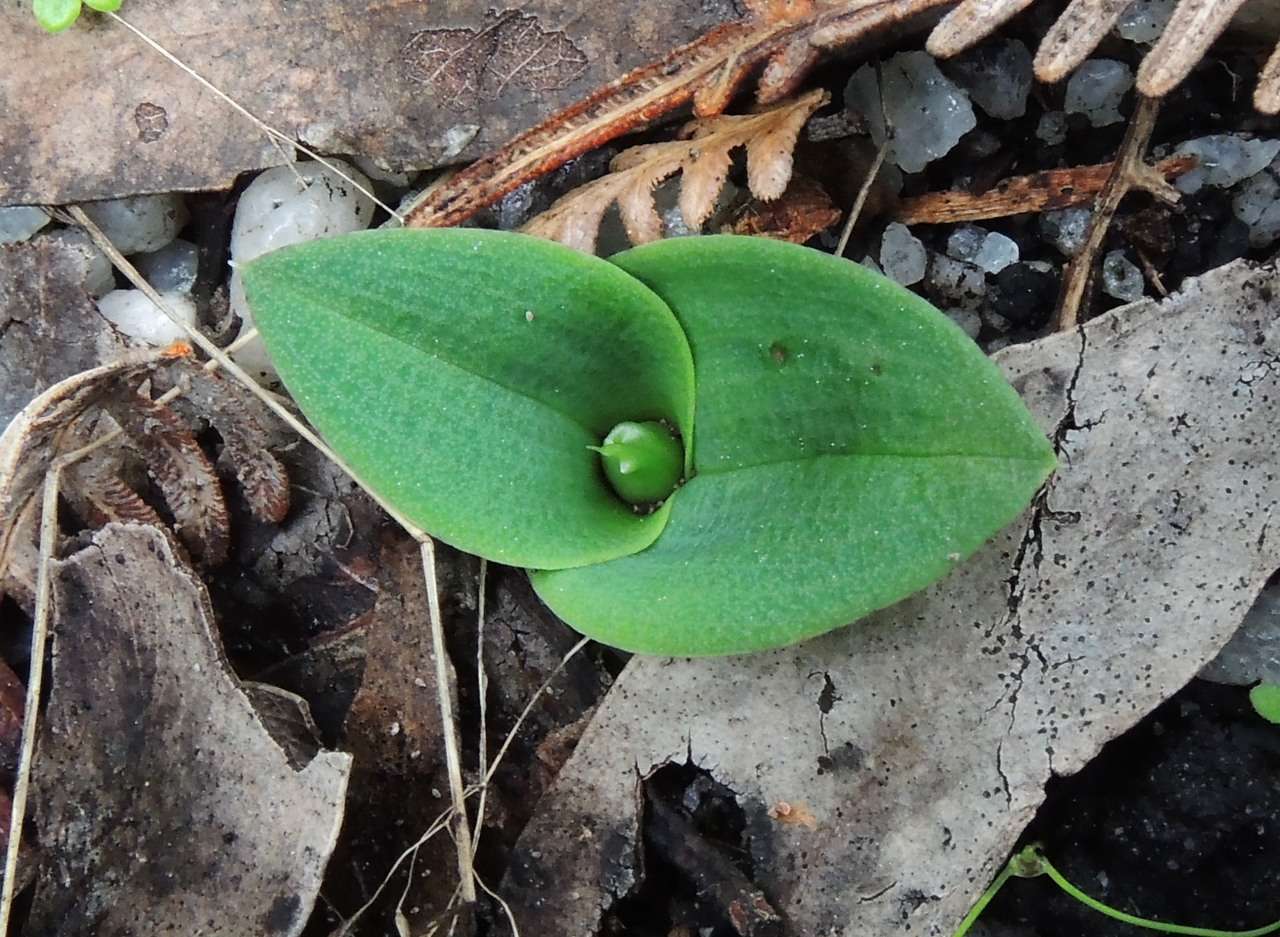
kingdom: Plantae
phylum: Tracheophyta
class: Liliopsida
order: Asparagales
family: Orchidaceae
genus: Chiloglottis
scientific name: Chiloglottis valida
